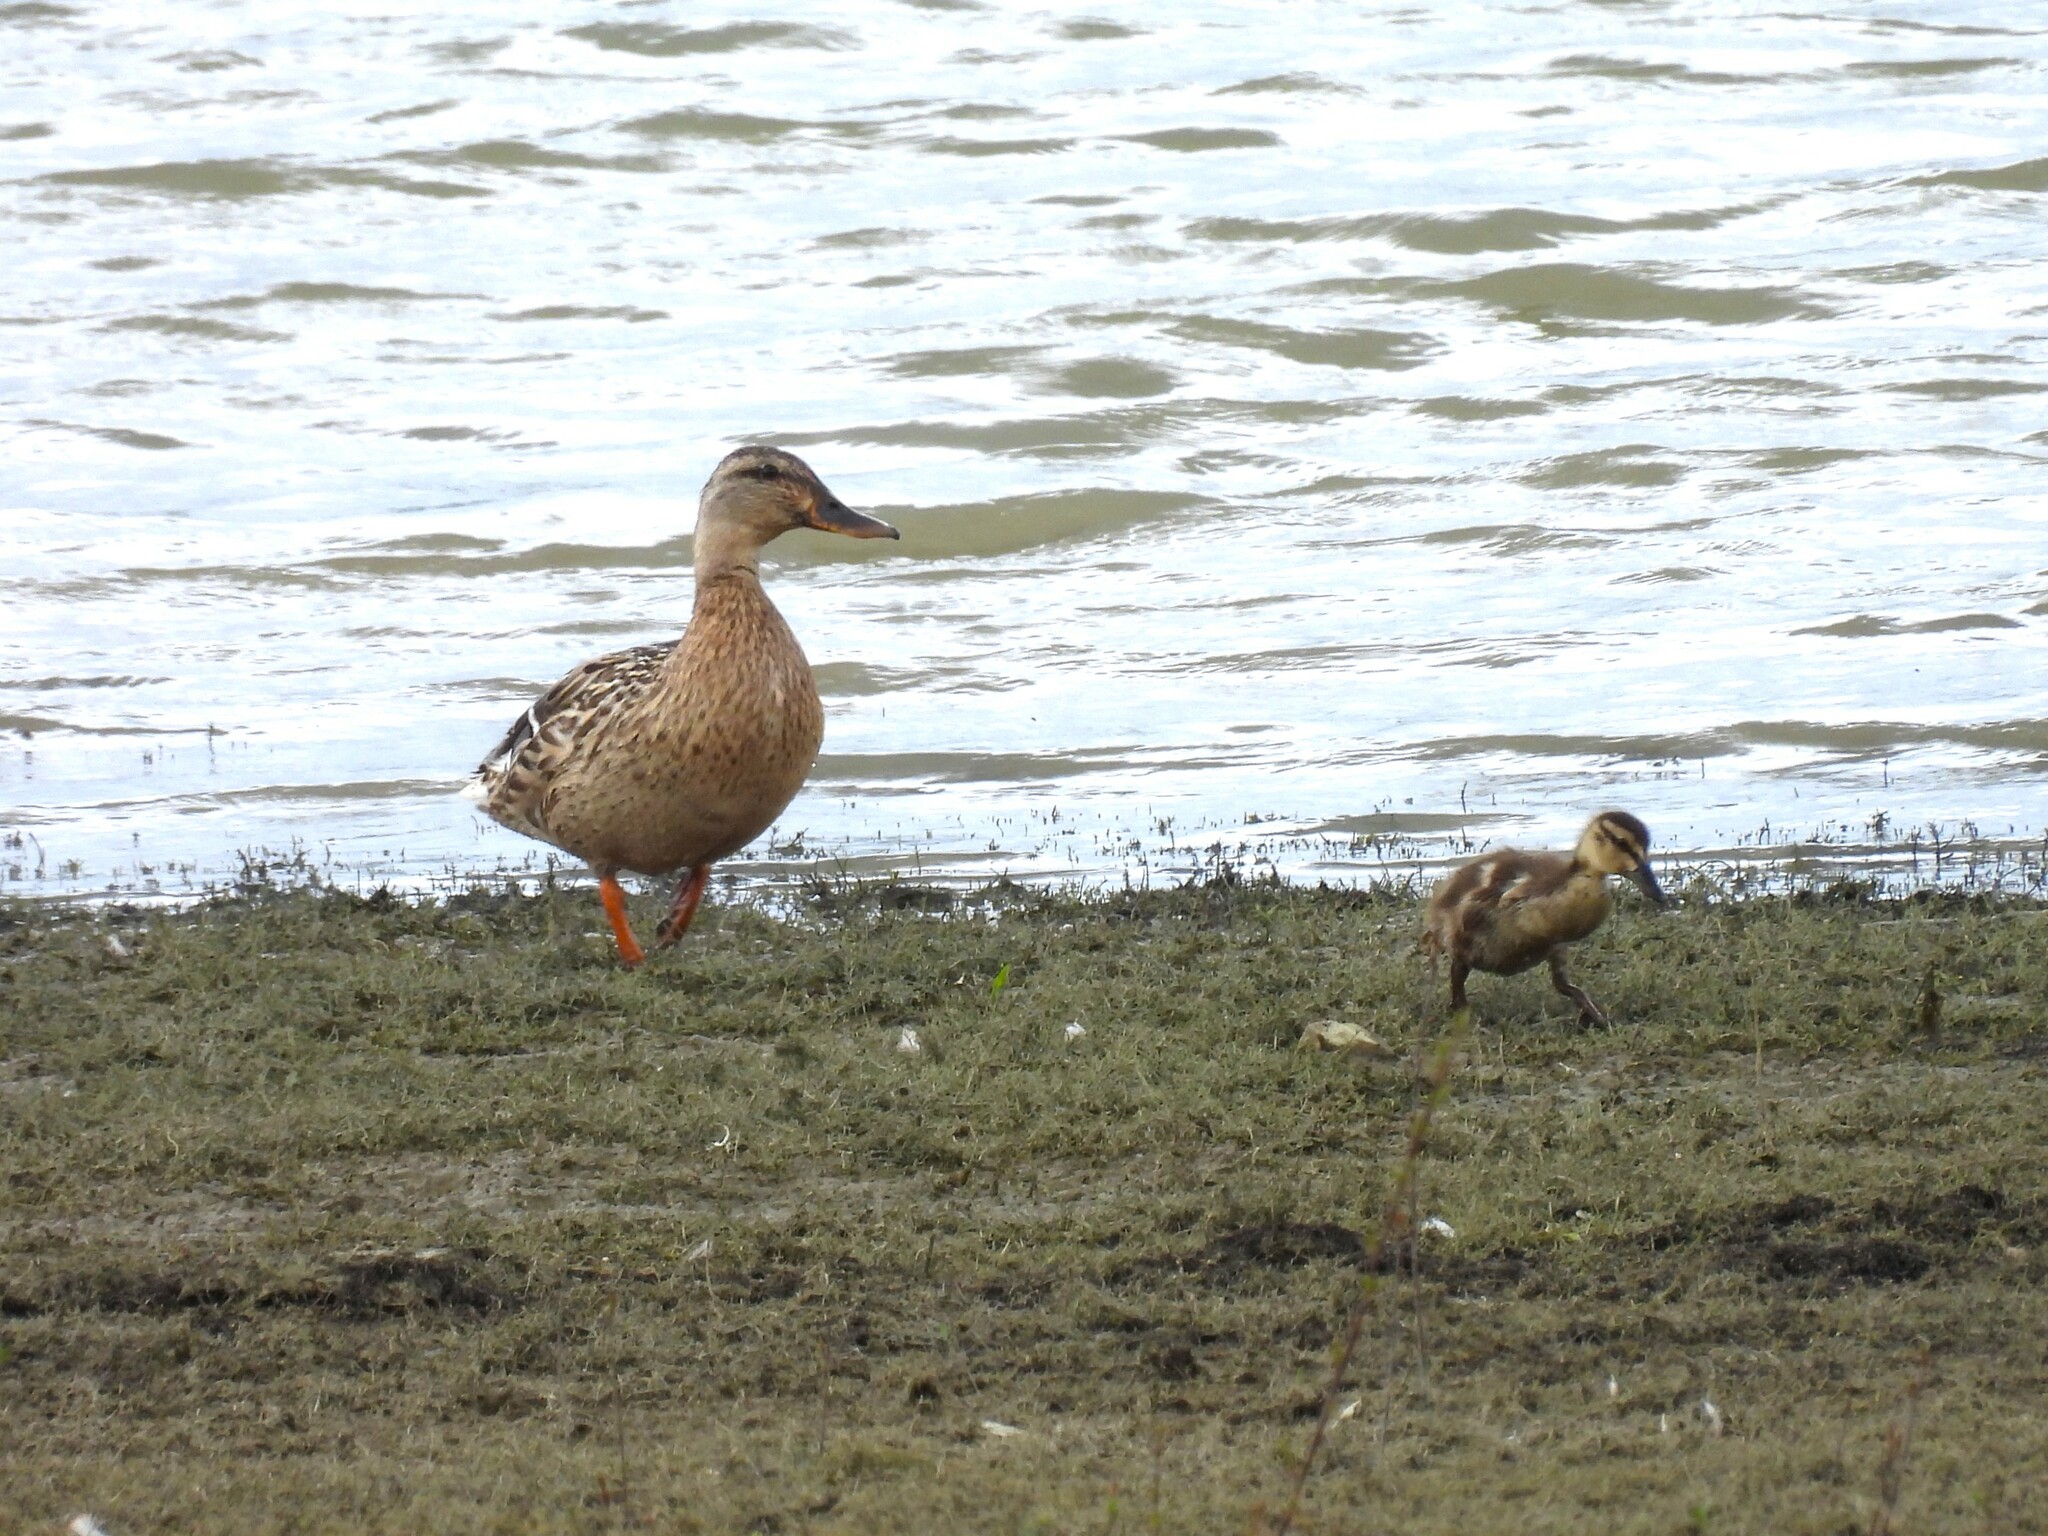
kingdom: Animalia
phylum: Chordata
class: Aves
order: Anseriformes
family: Anatidae
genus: Anas
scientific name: Anas platyrhynchos
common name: Mallard
